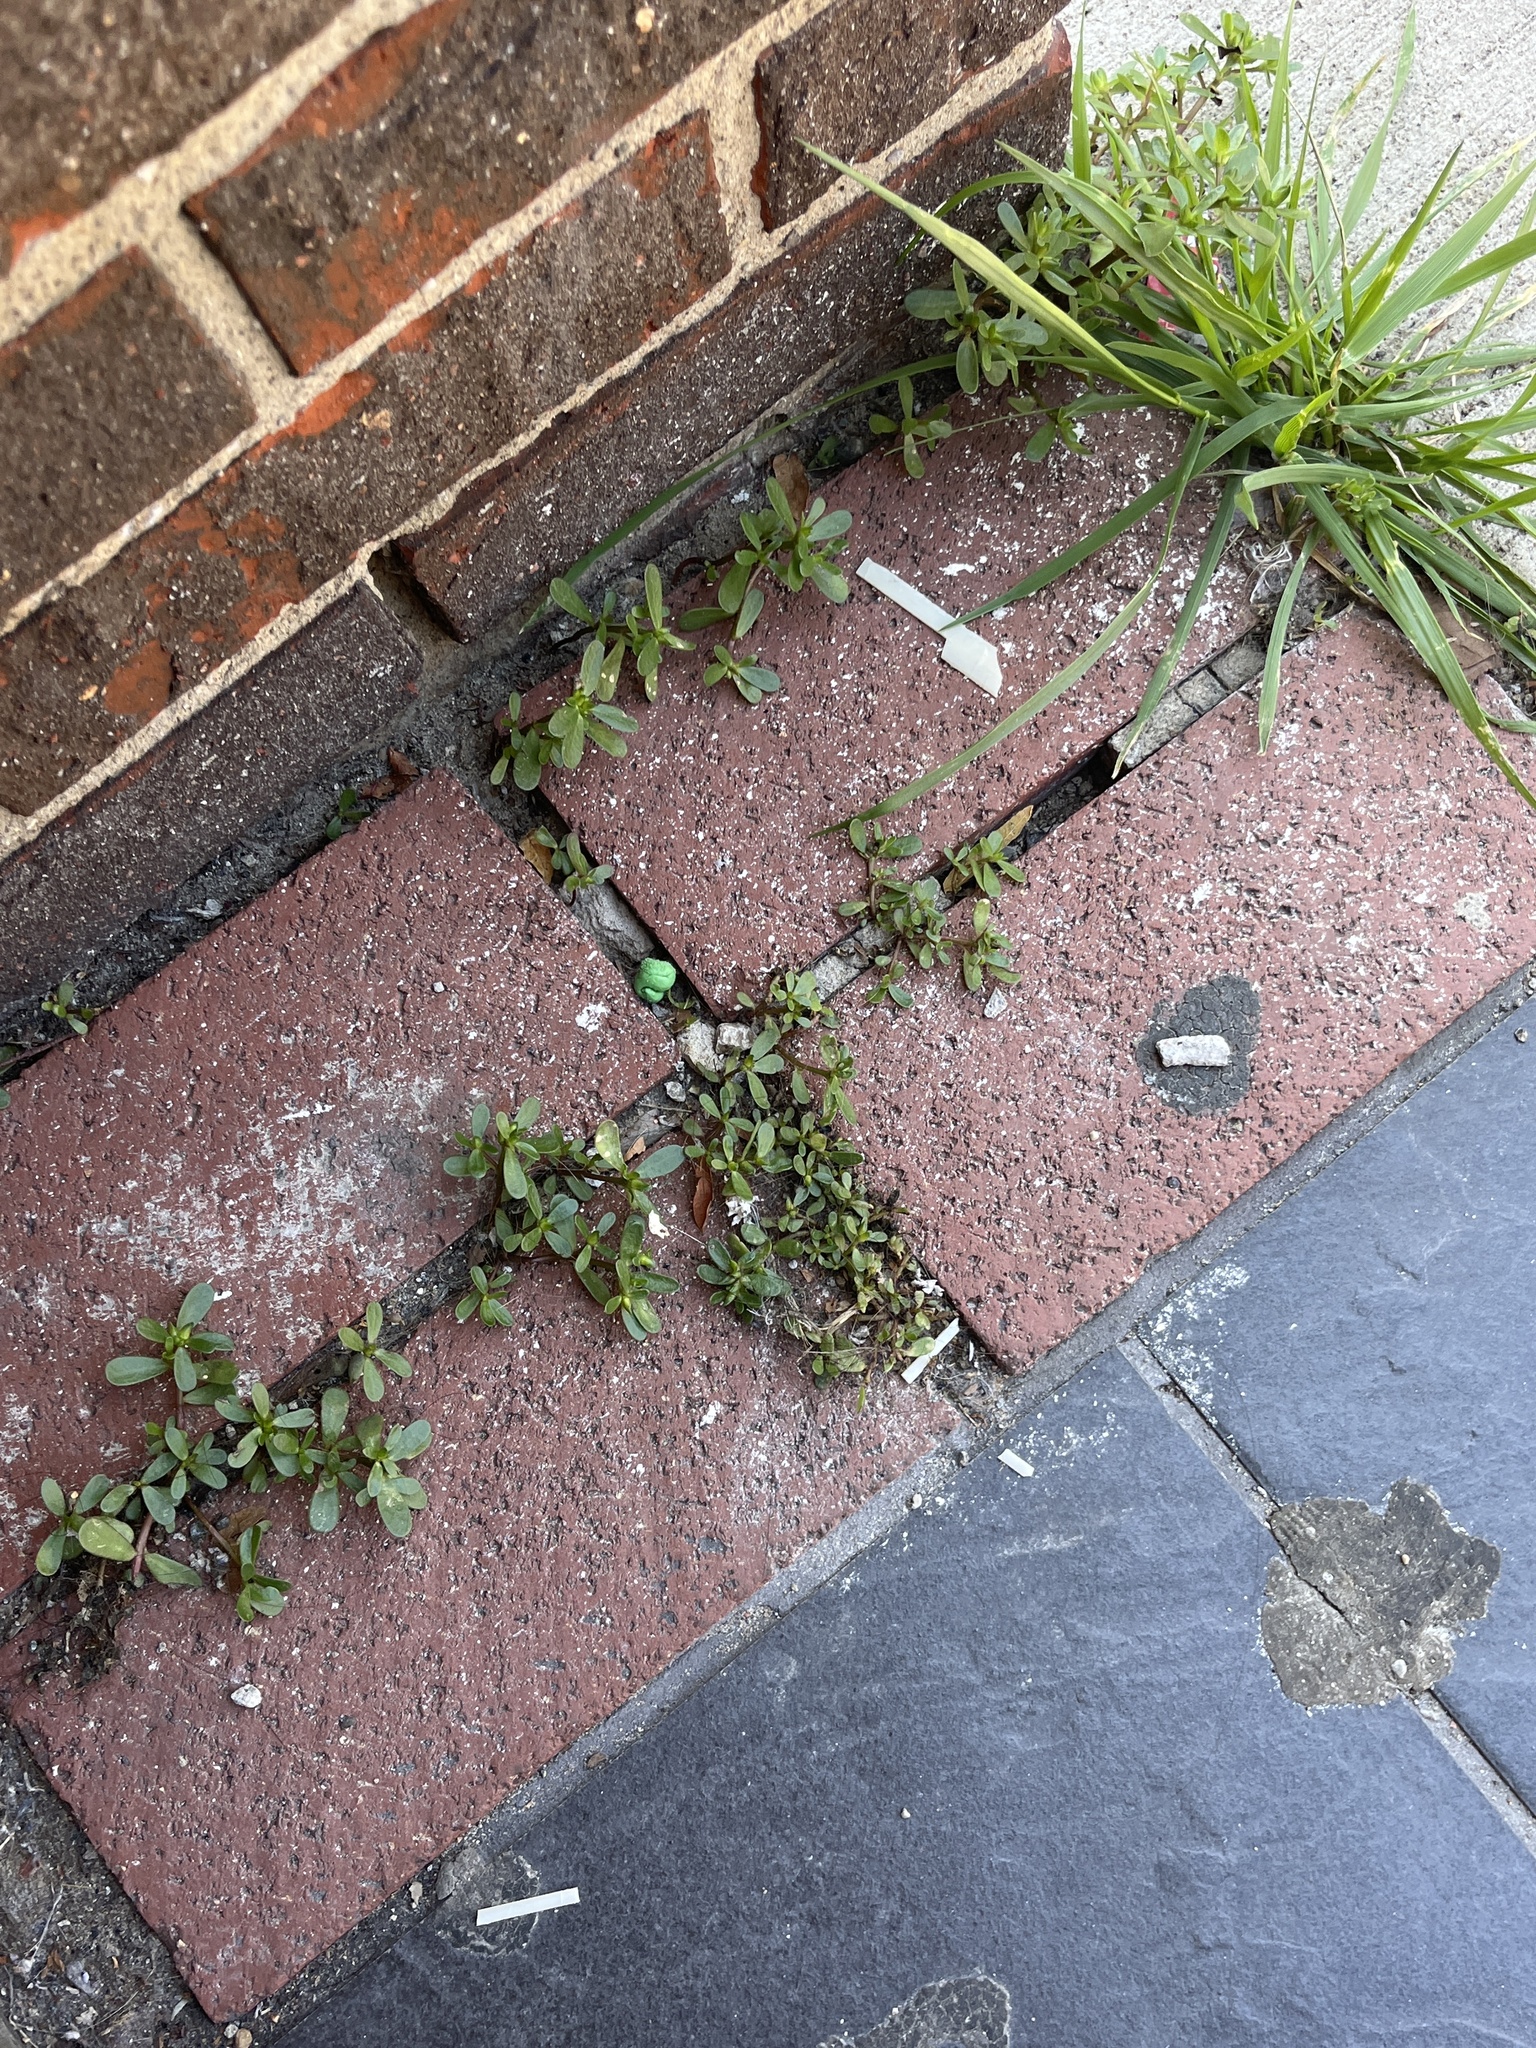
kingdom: Plantae
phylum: Tracheophyta
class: Magnoliopsida
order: Caryophyllales
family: Portulacaceae
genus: Portulaca
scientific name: Portulaca oleracea
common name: Common purslane
